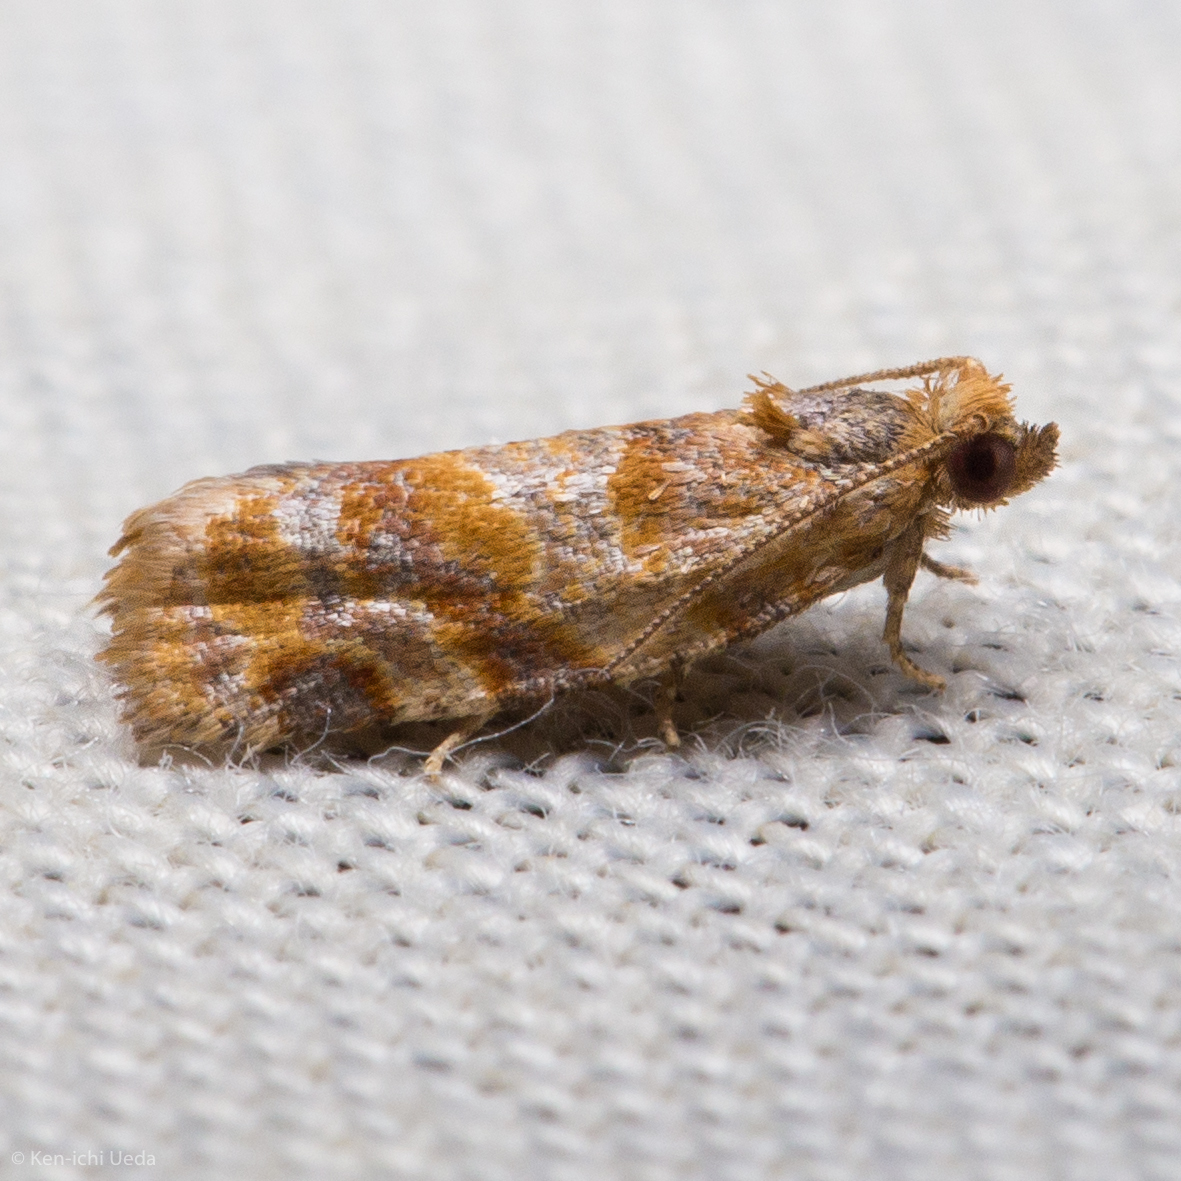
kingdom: Animalia
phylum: Arthropoda
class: Insecta
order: Lepidoptera
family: Tortricidae
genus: Argyrotaenia
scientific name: Argyrotaenia pinatubana
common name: Pine tube moth
